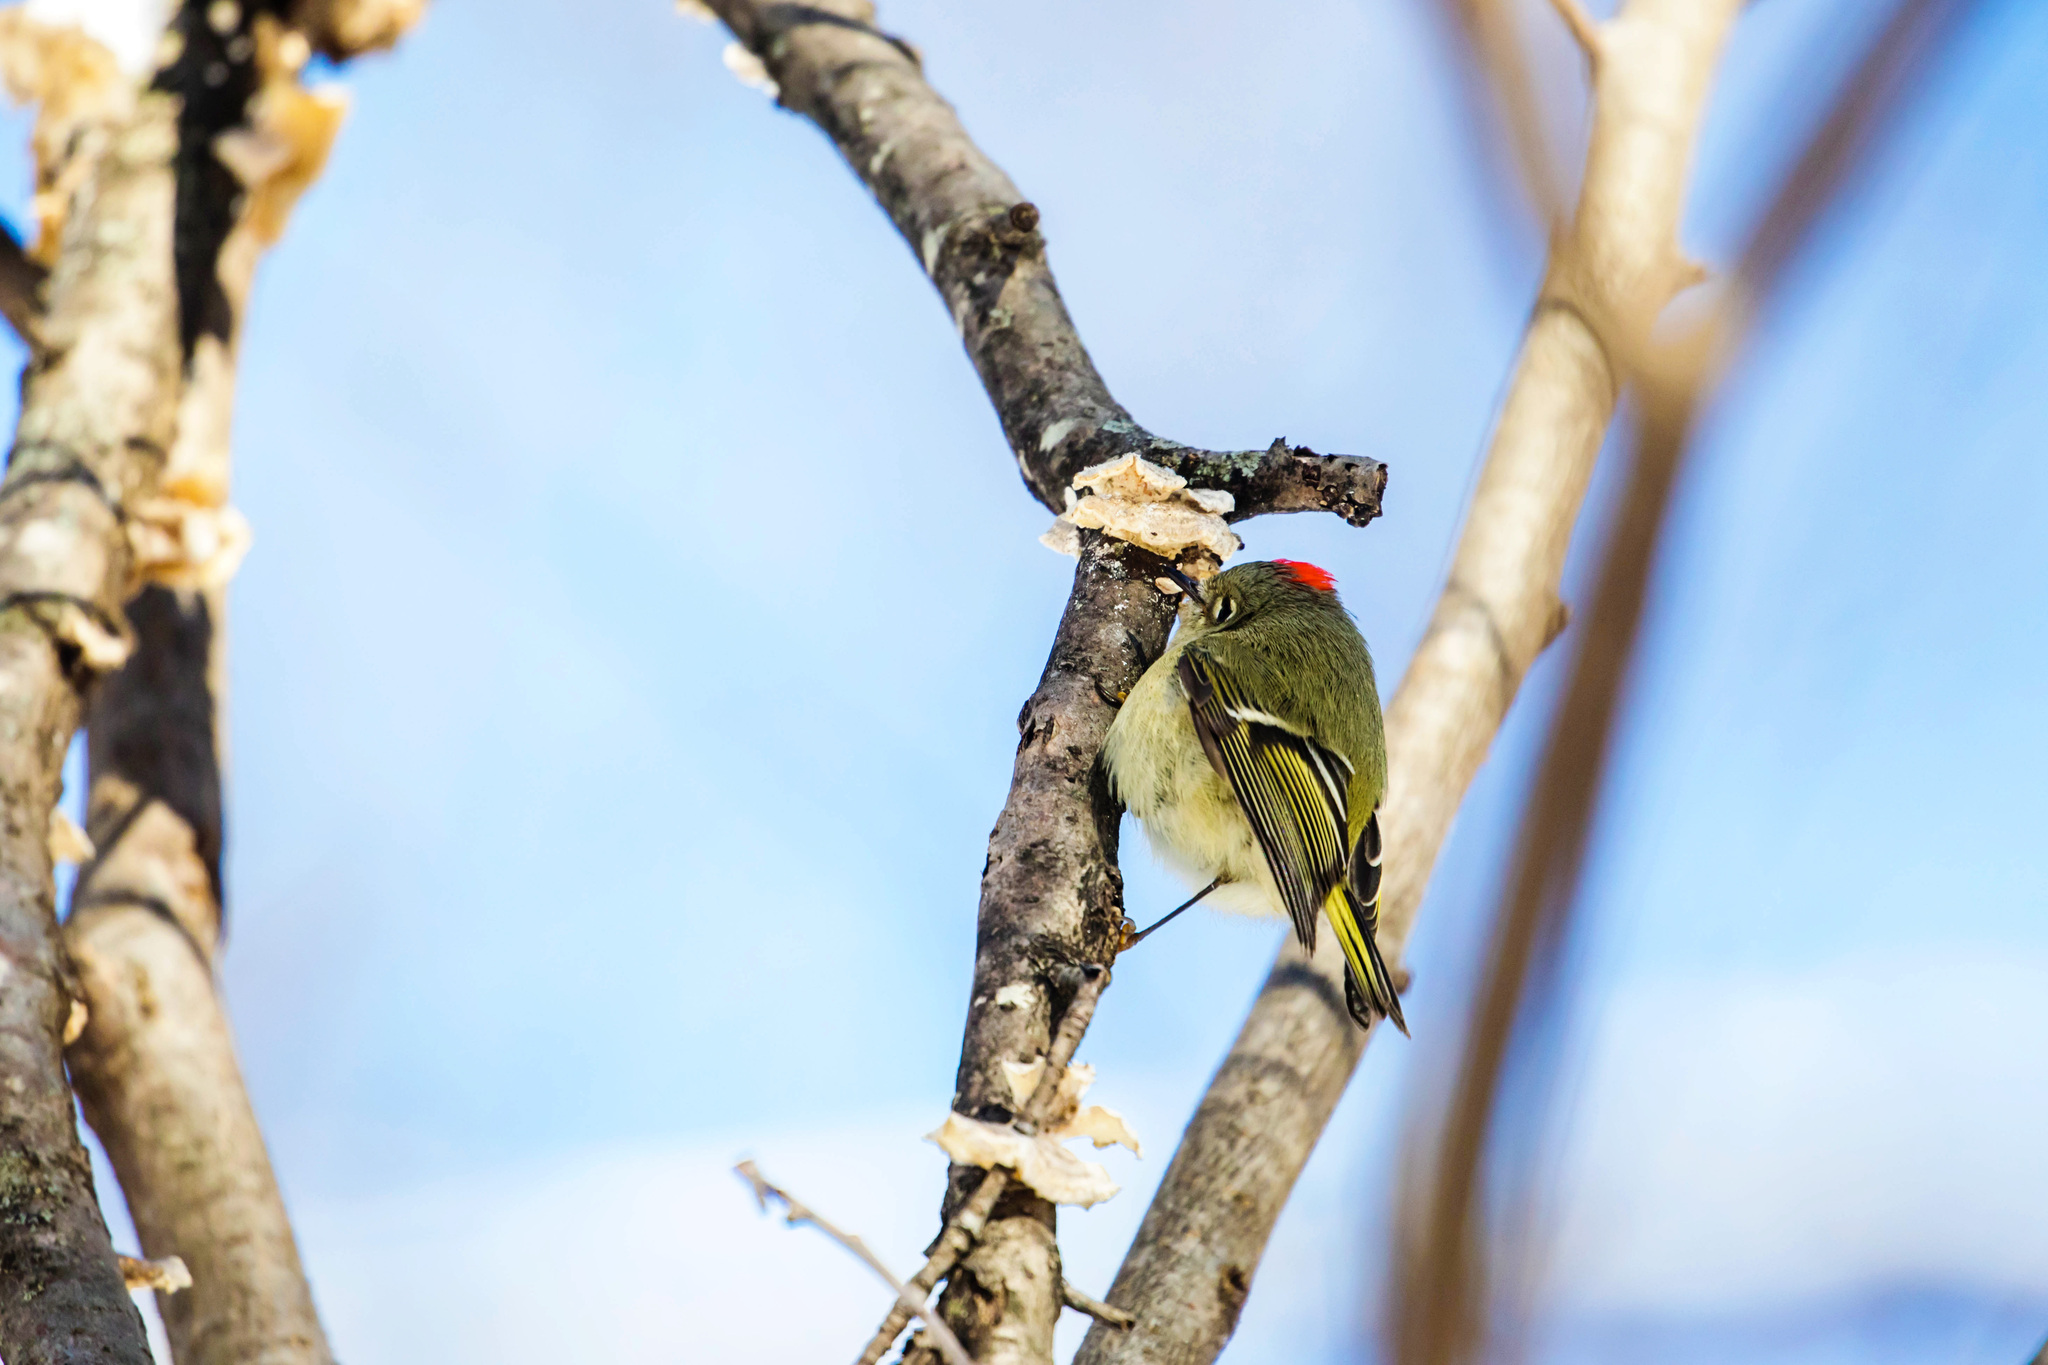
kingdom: Animalia
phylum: Chordata
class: Aves
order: Passeriformes
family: Regulidae
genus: Regulus
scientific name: Regulus calendula
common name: Ruby-crowned kinglet
